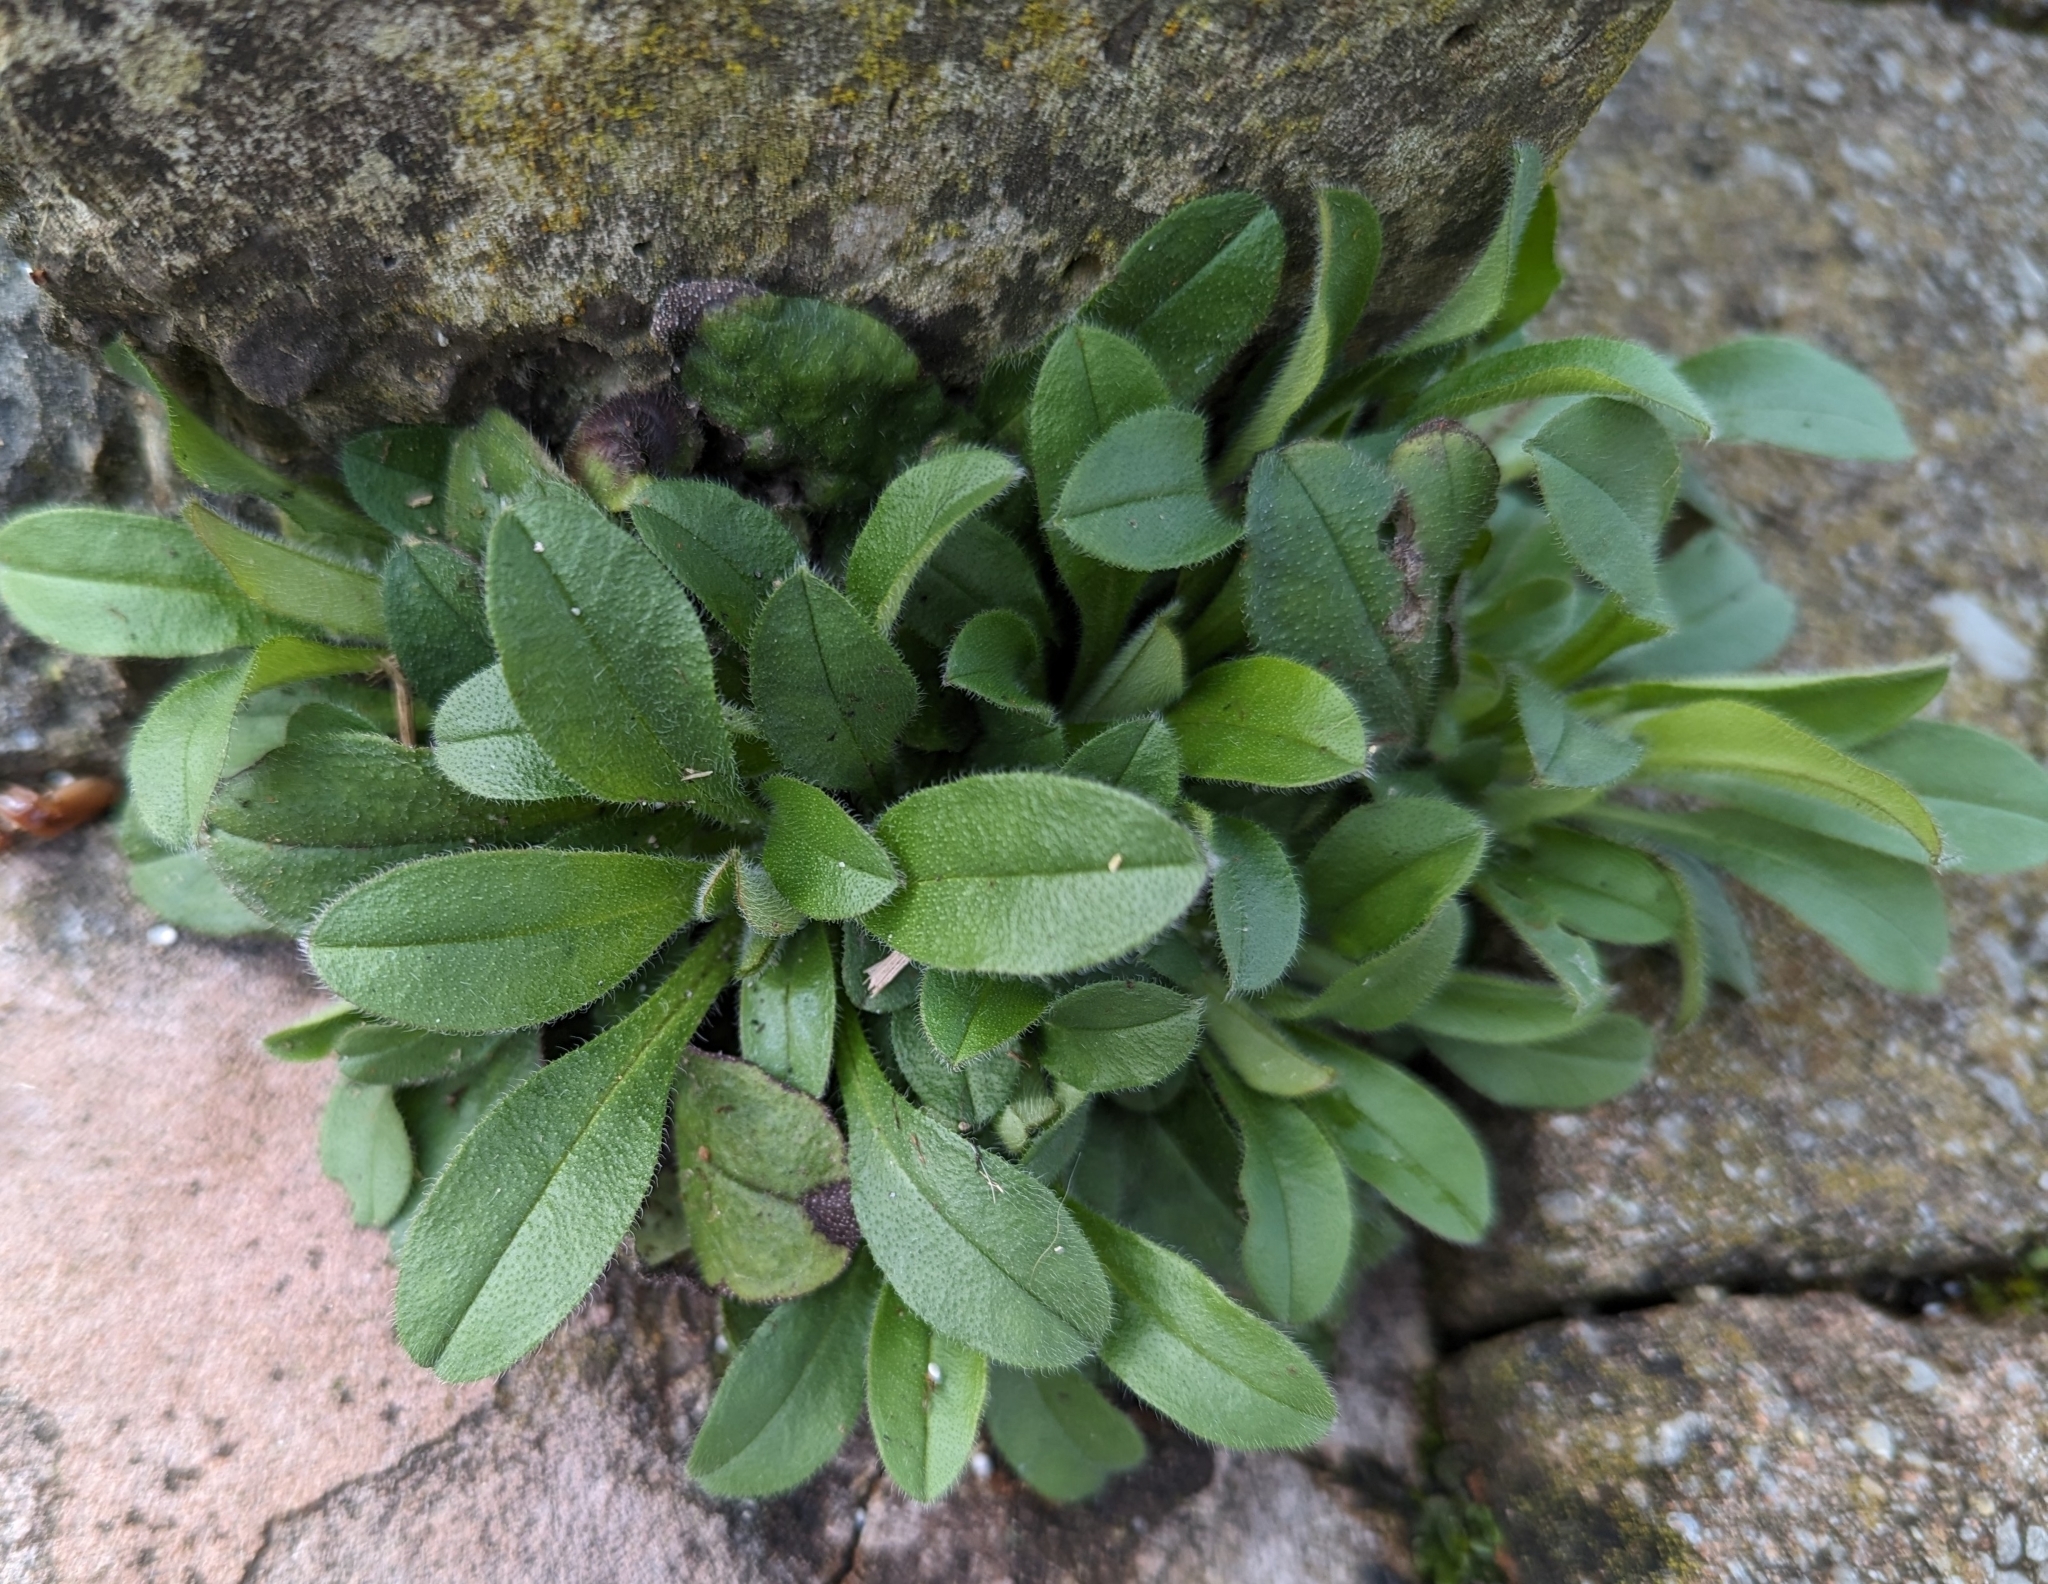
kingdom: Plantae
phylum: Tracheophyta
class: Magnoliopsida
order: Boraginales
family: Boraginaceae
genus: Myosotis
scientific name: Myosotis arvensis
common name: Field forget-me-not
